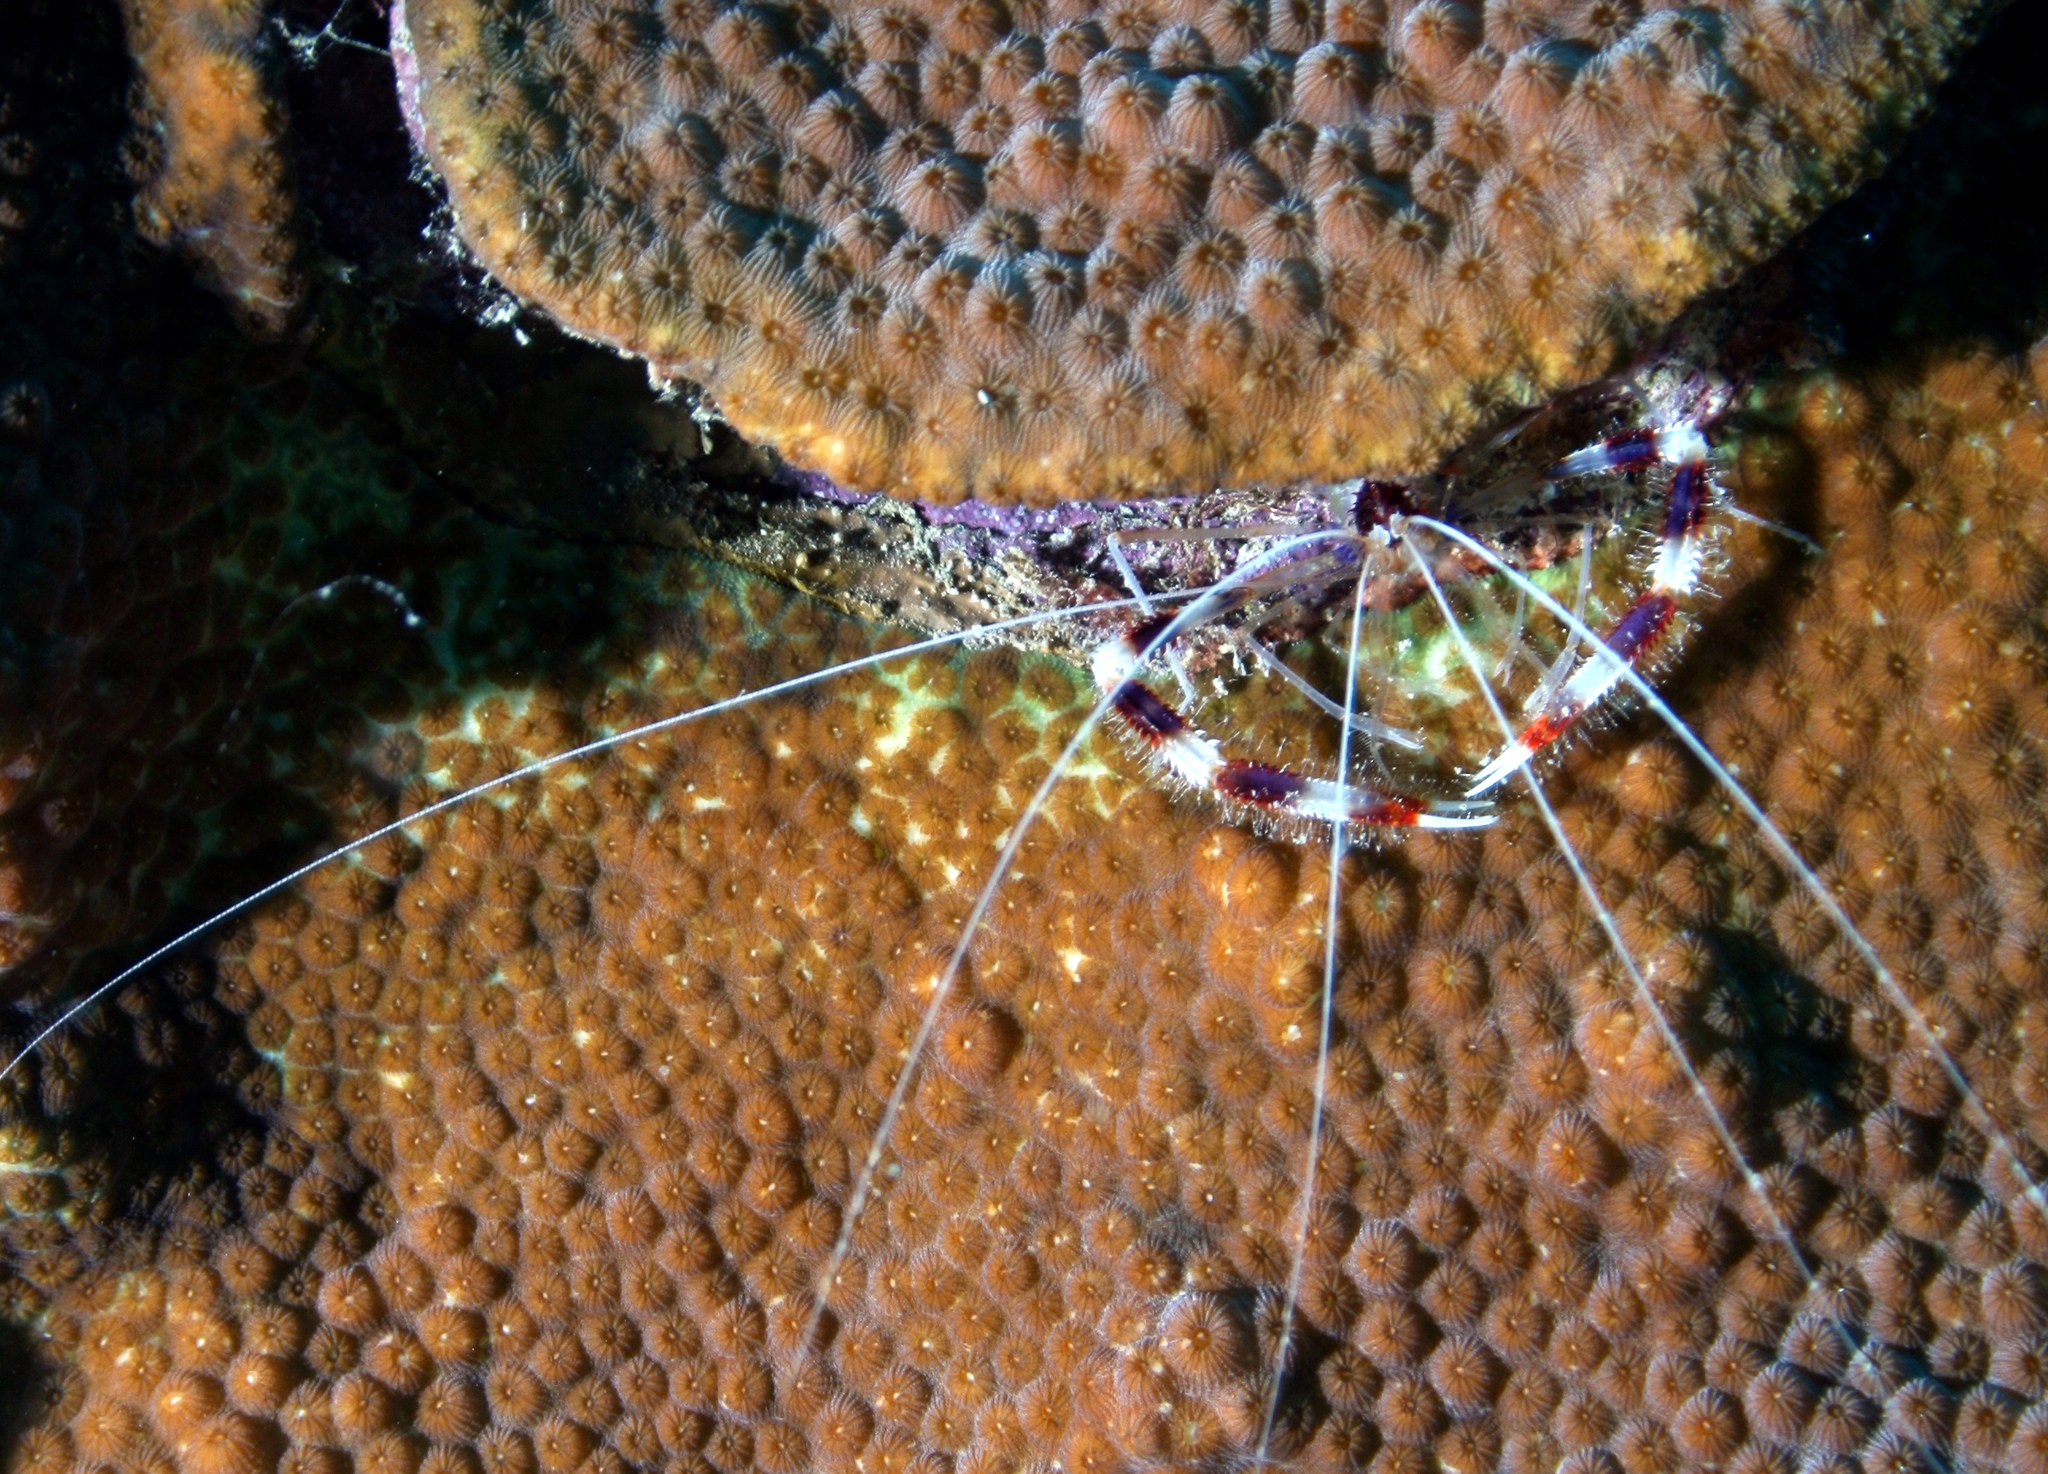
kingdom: Animalia
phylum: Arthropoda
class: Malacostraca
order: Decapoda
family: Stenopodidae
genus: Stenopus
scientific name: Stenopus hispidus
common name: Banded coral shrimp
